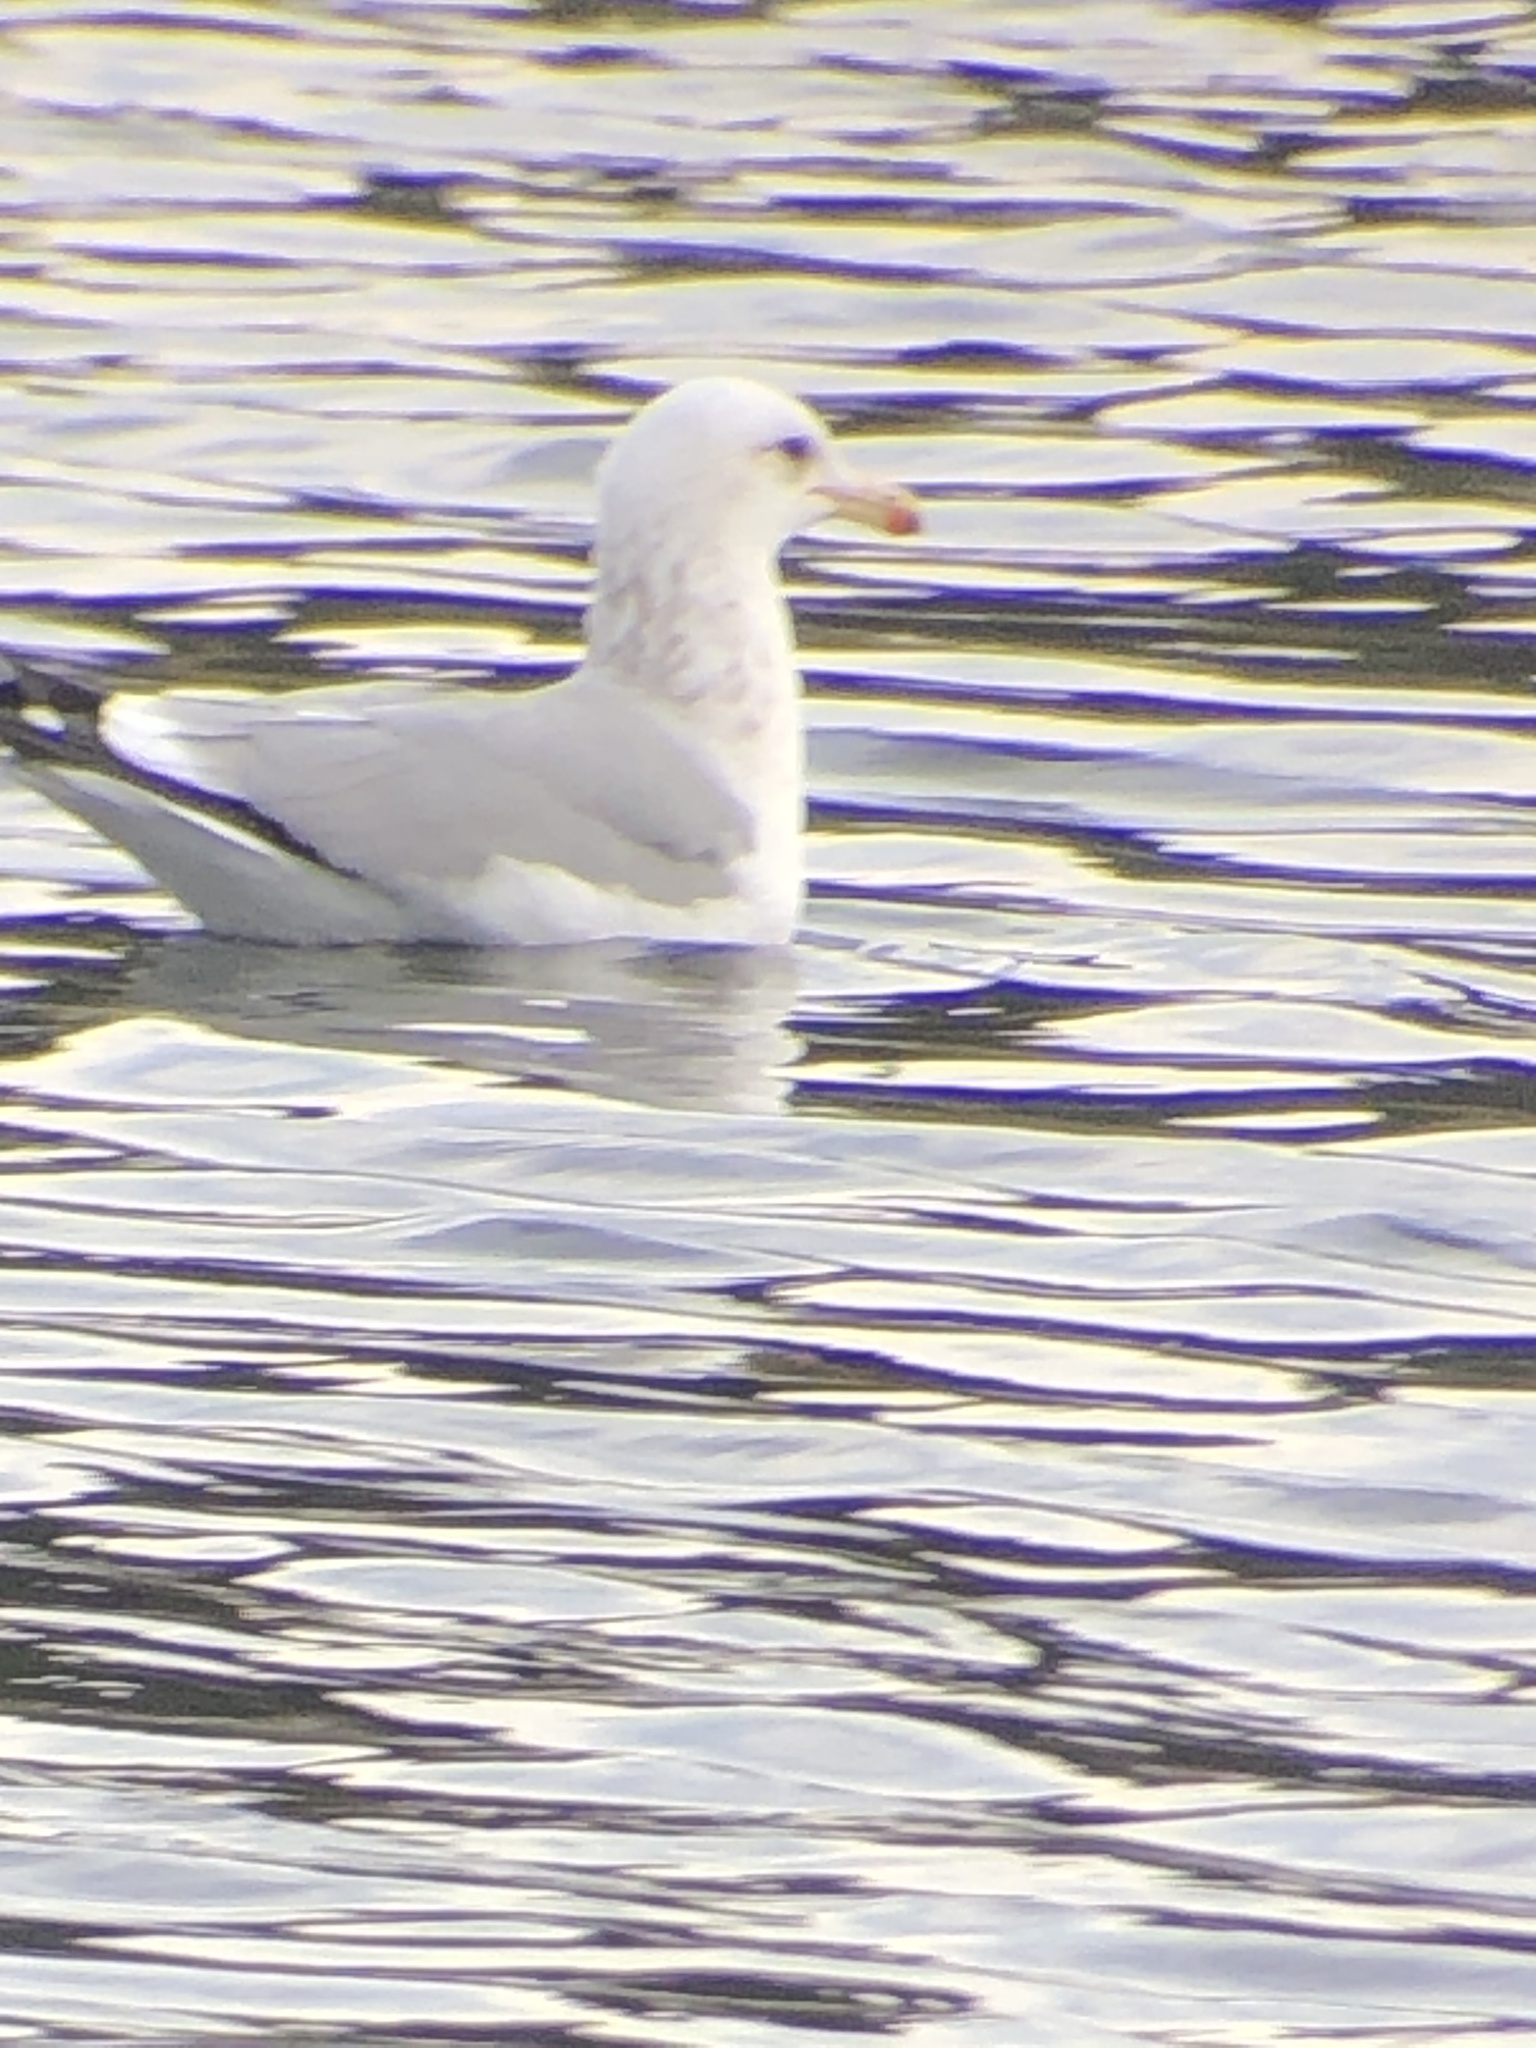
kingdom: Animalia
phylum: Chordata
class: Aves
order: Charadriiformes
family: Laridae
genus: Larus
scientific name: Larus californicus
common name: California gull
